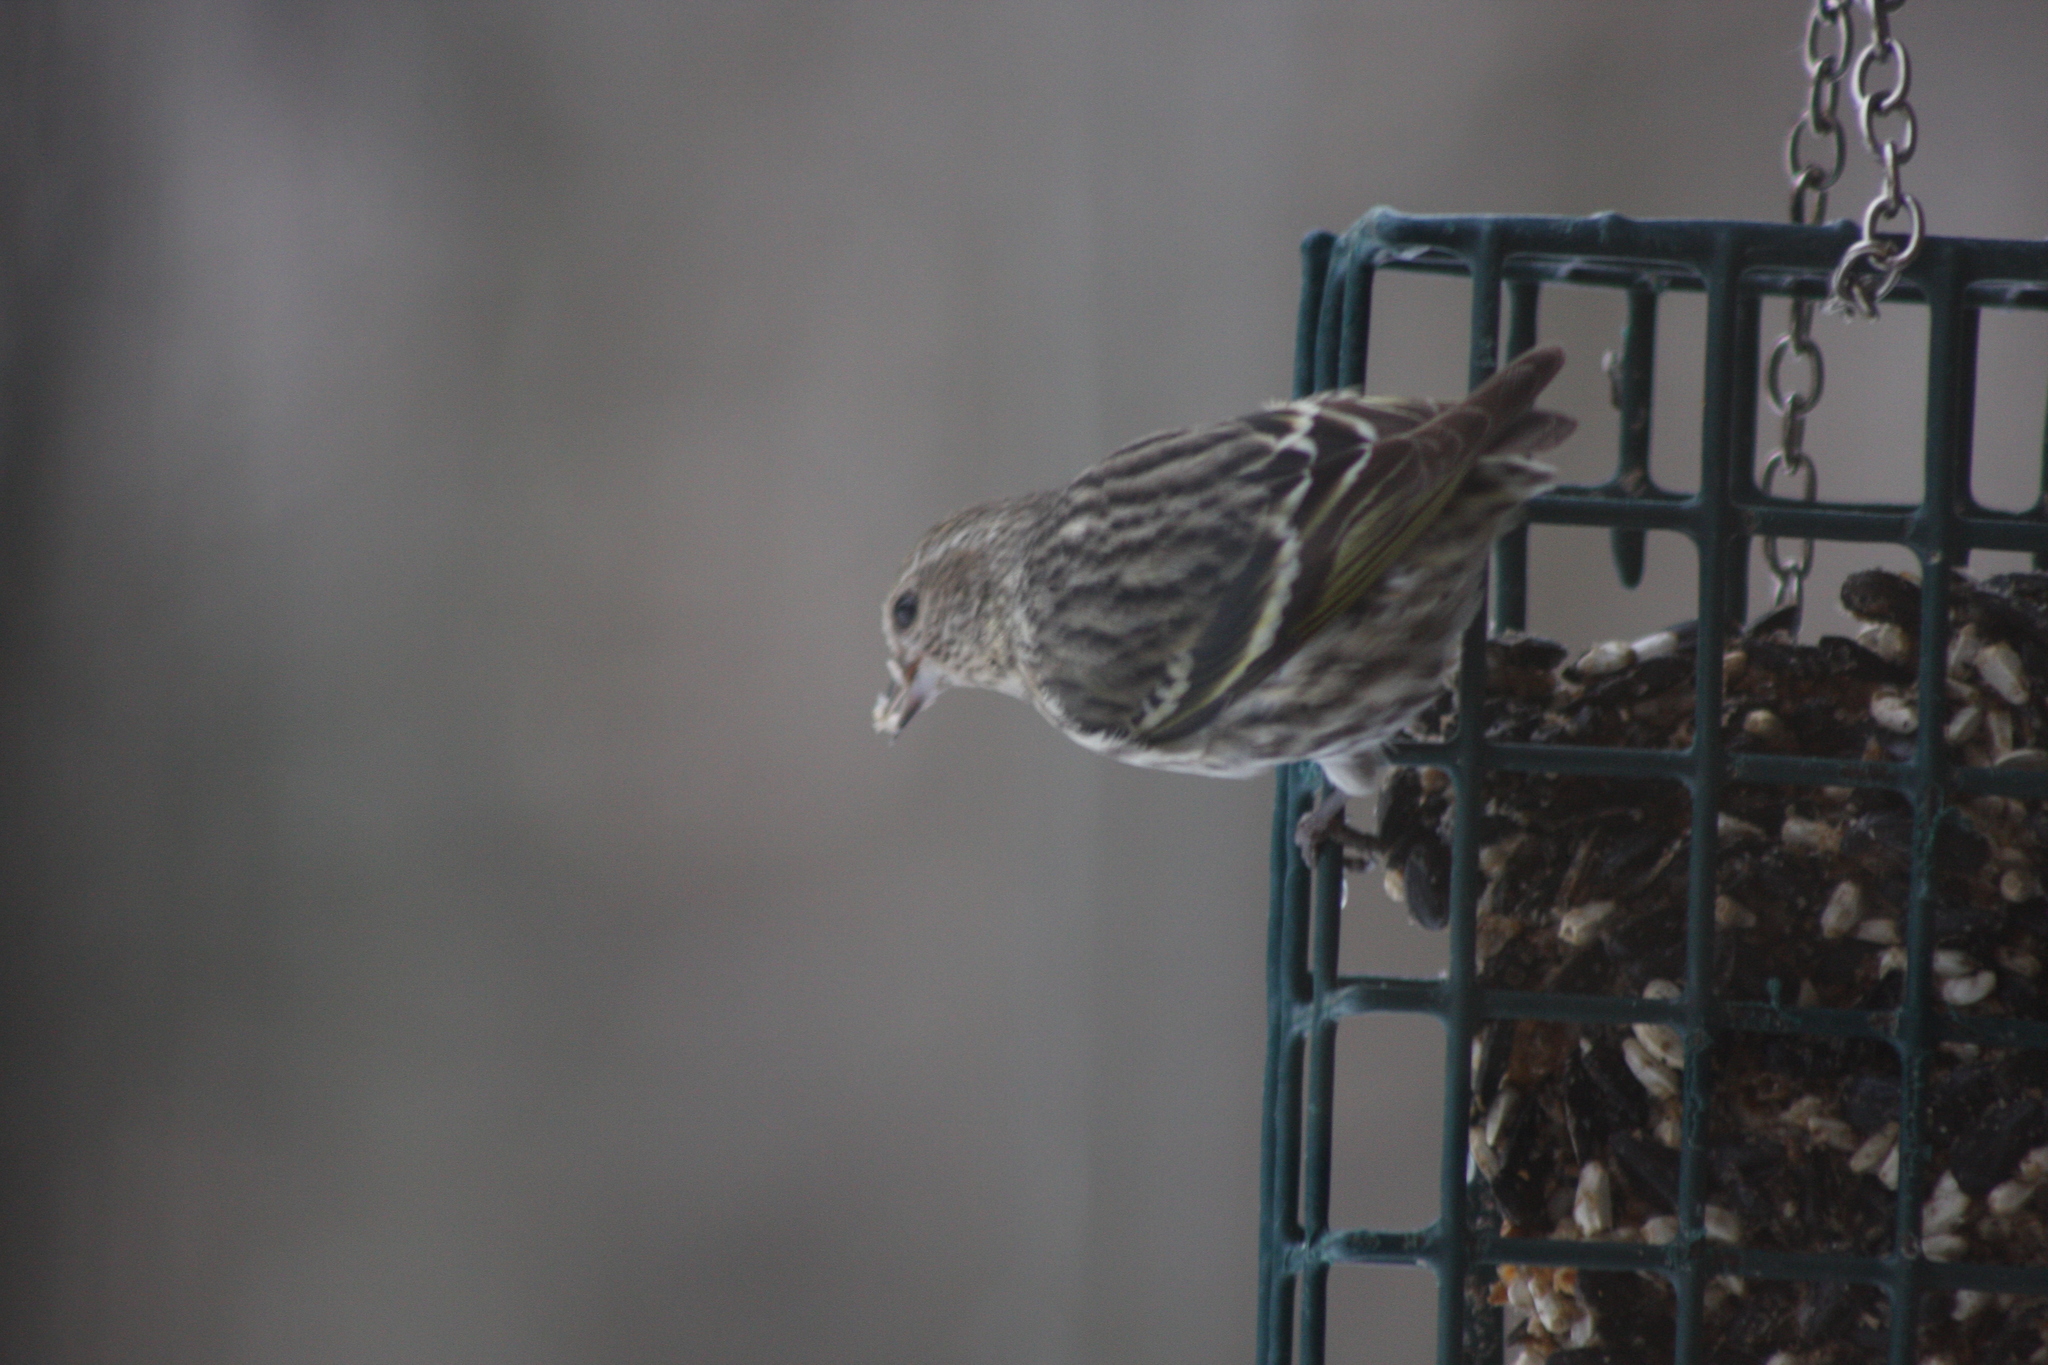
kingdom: Animalia
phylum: Chordata
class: Aves
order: Passeriformes
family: Fringillidae
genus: Spinus
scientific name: Spinus pinus
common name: Pine siskin
